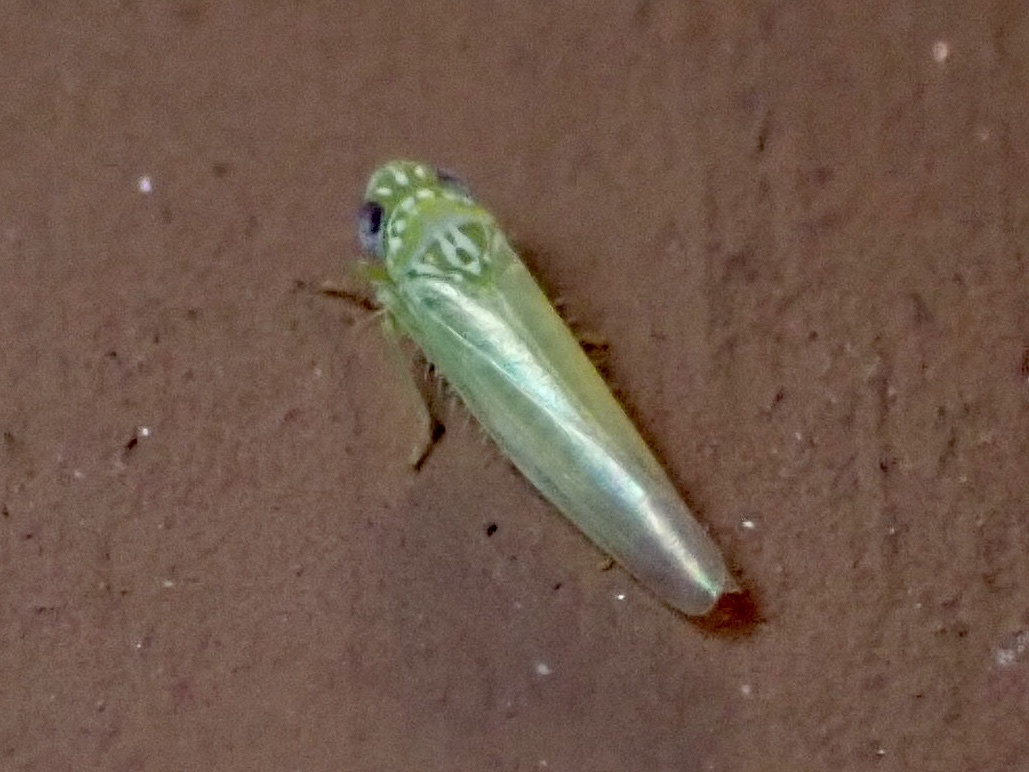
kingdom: Animalia
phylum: Arthropoda
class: Insecta
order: Hemiptera
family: Cicadellidae
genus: Empoasca
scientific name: Empoasca fabae
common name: Potato leafhopper
